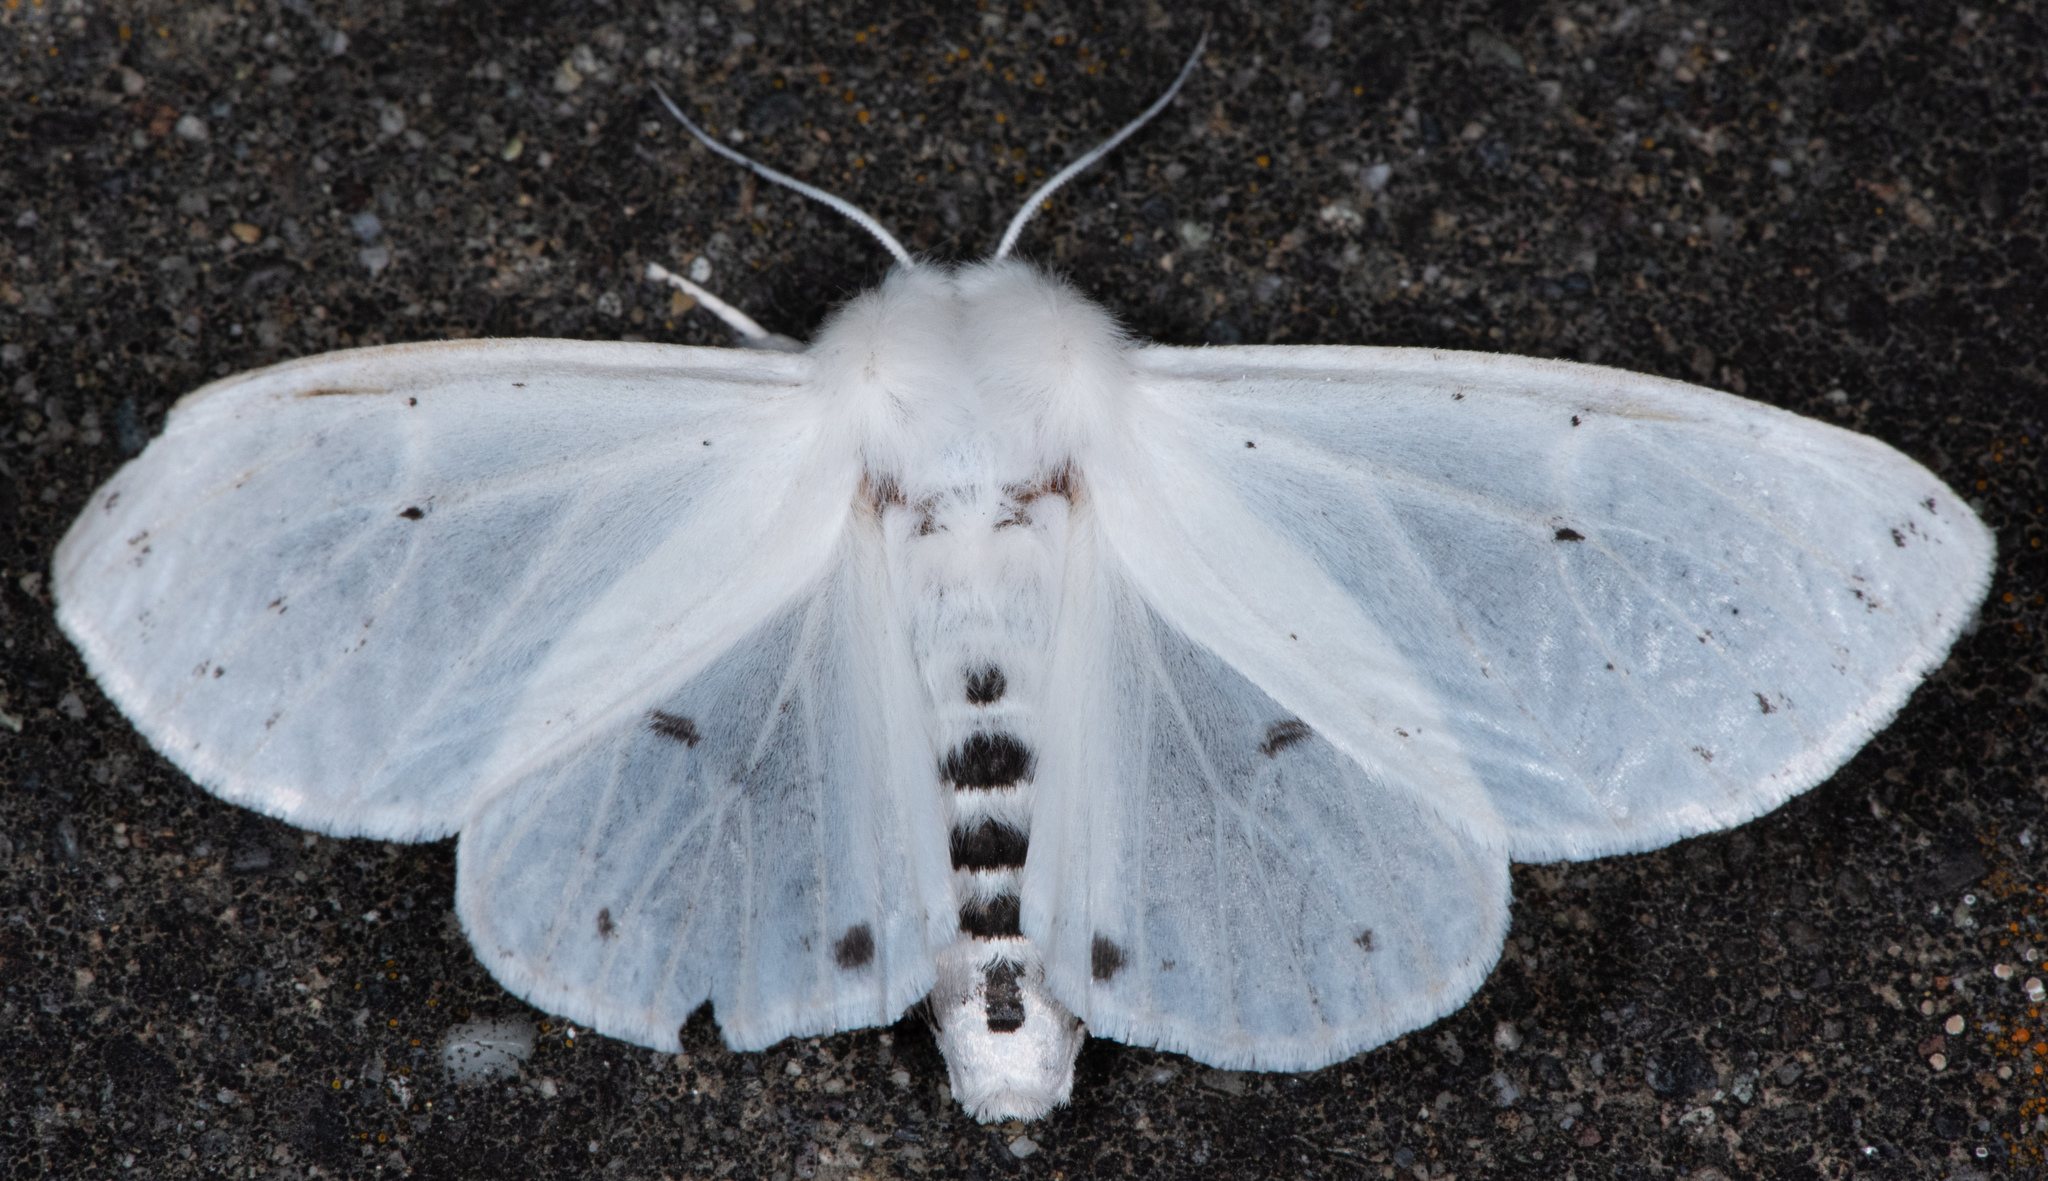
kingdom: Animalia
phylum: Arthropoda
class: Insecta
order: Lepidoptera
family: Erebidae
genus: Spilosoma
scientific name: Spilosoma vestalis
